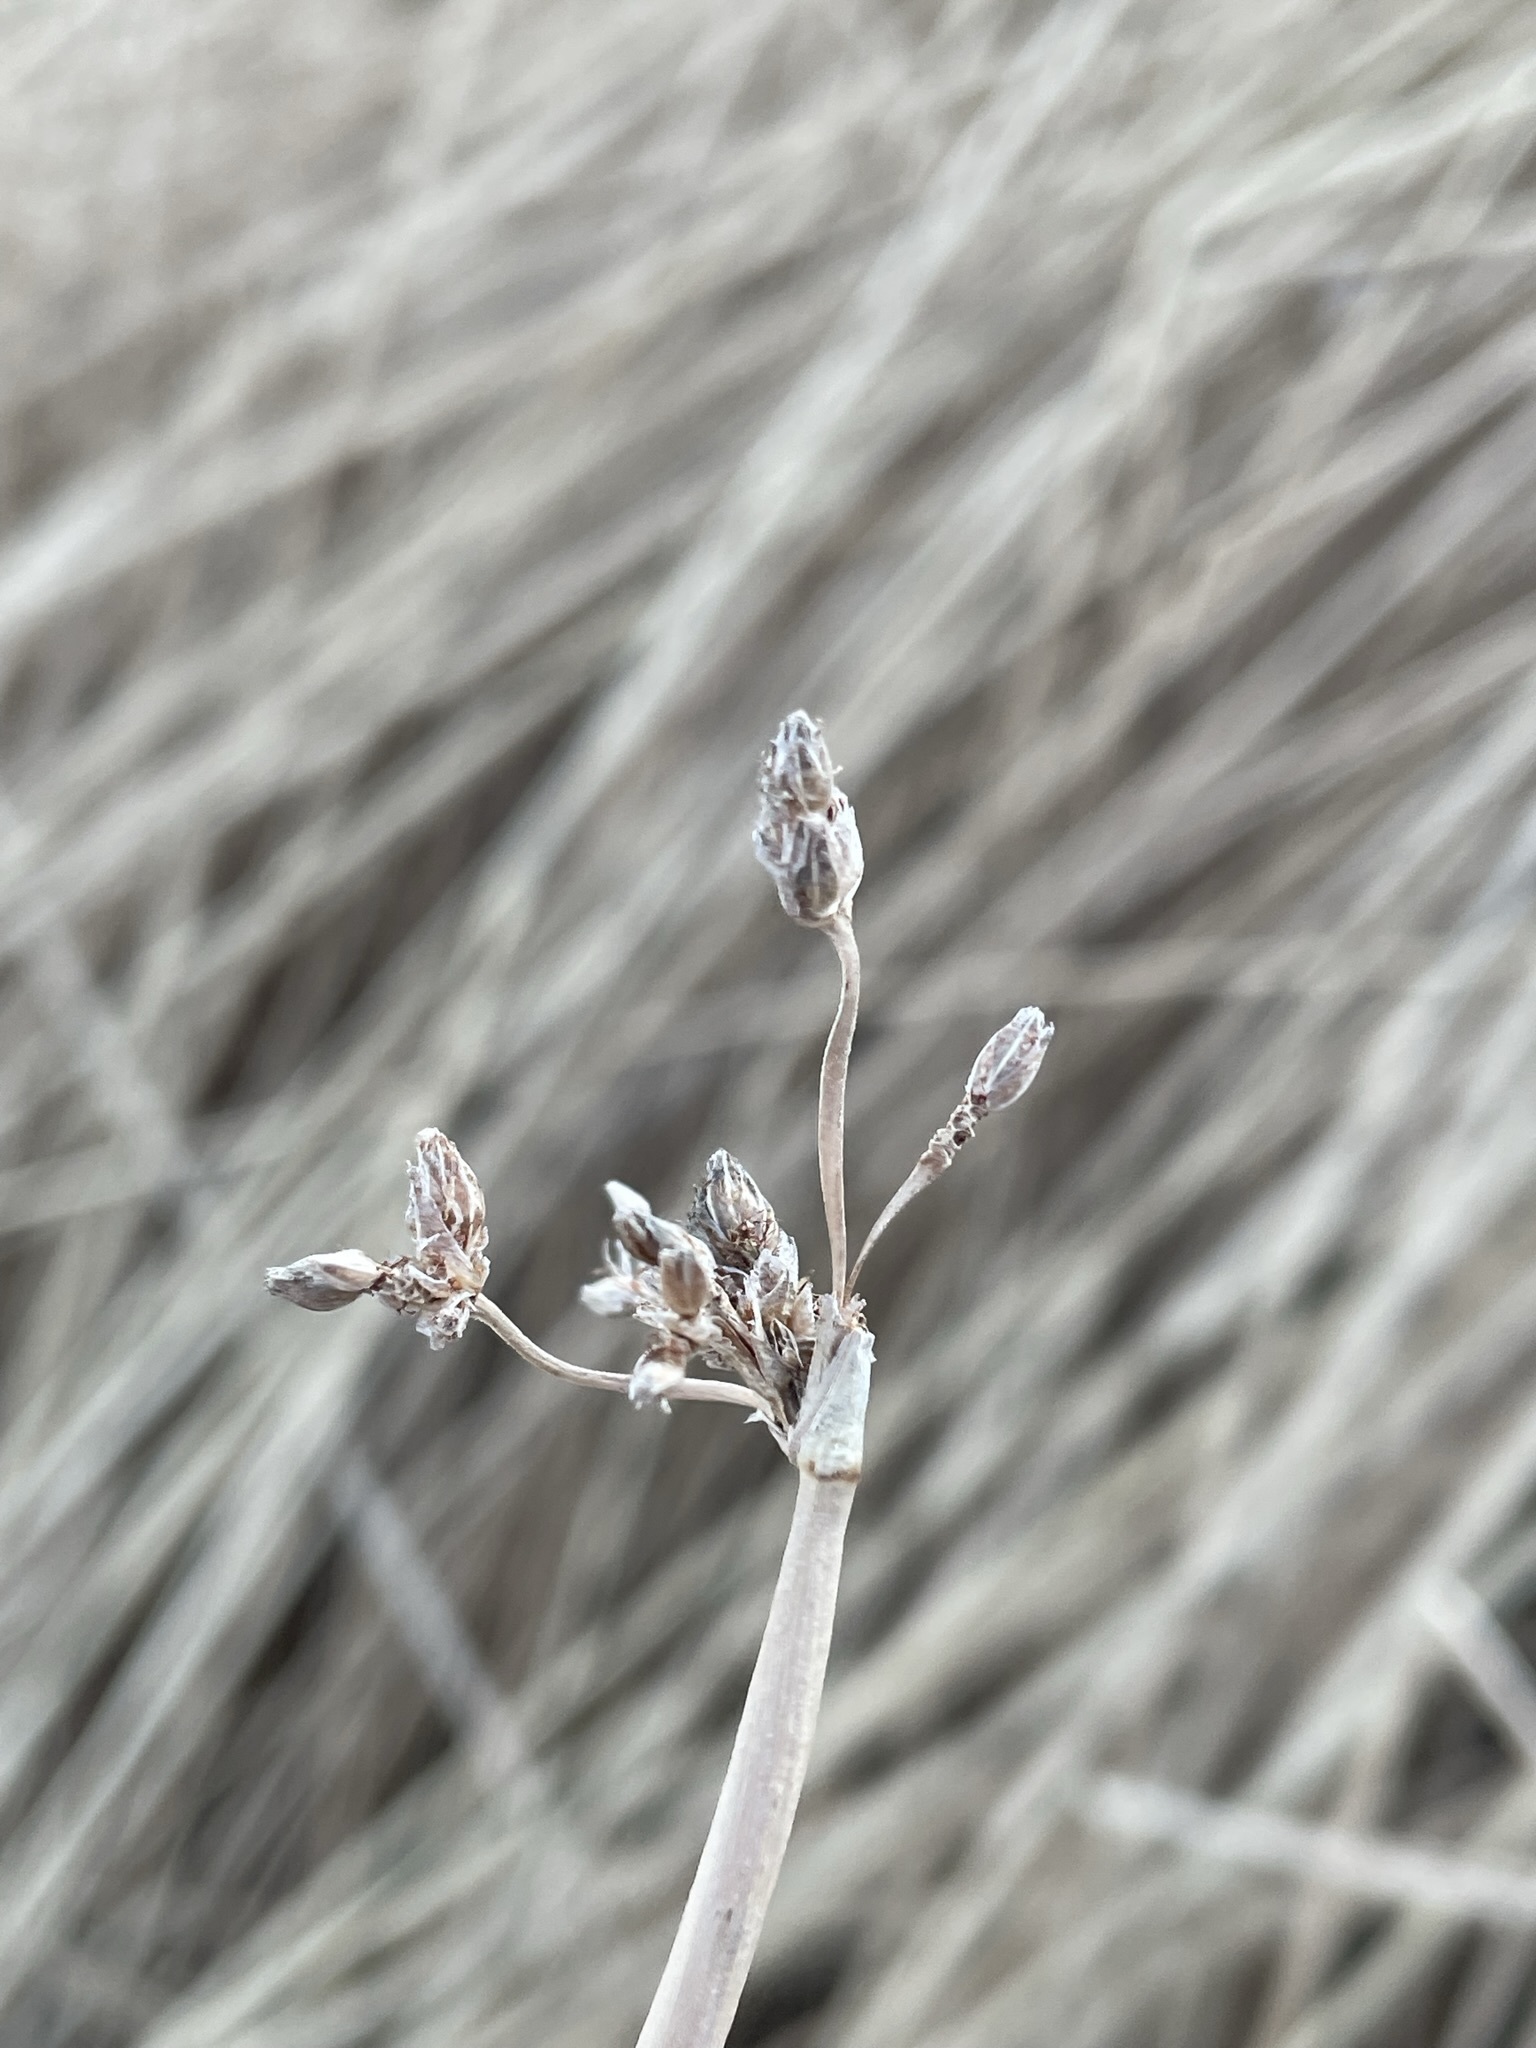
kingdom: Plantae
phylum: Tracheophyta
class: Liliopsida
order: Poales
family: Cyperaceae
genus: Schoenoplectus
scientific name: Schoenoplectus acutus
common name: Hardstem bulrush
